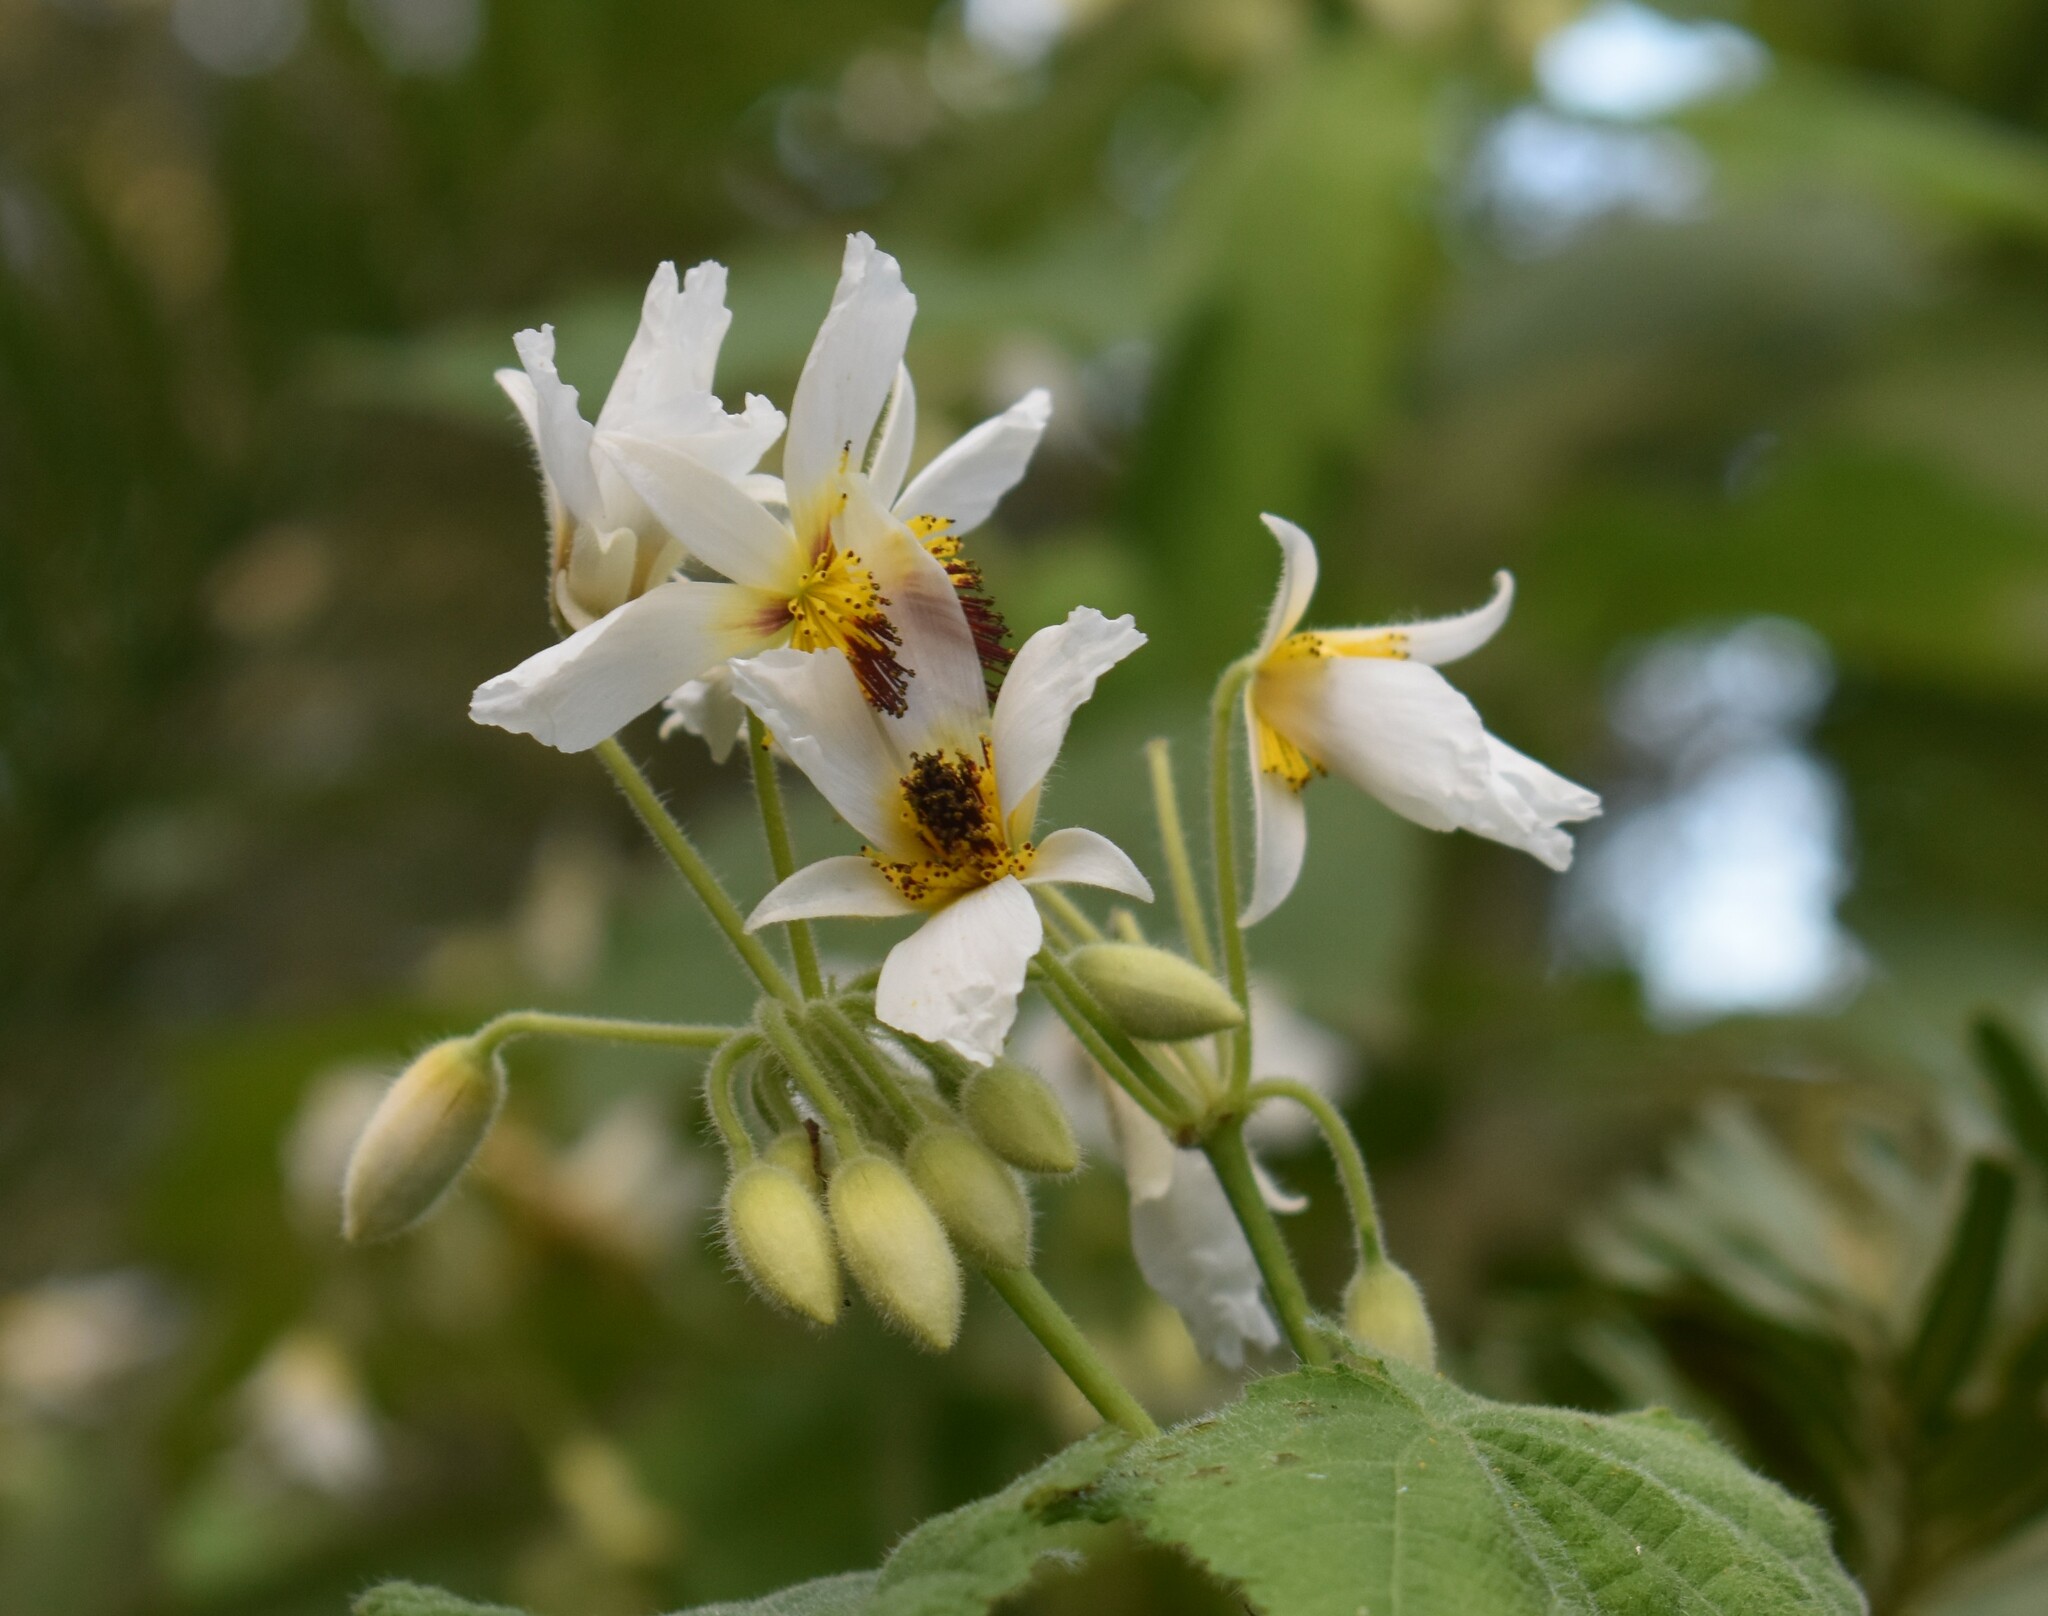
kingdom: Plantae
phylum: Tracheophyta
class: Magnoliopsida
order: Malvales
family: Malvaceae
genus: Sparrmannia
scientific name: Sparrmannia africana
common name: African-hemp
